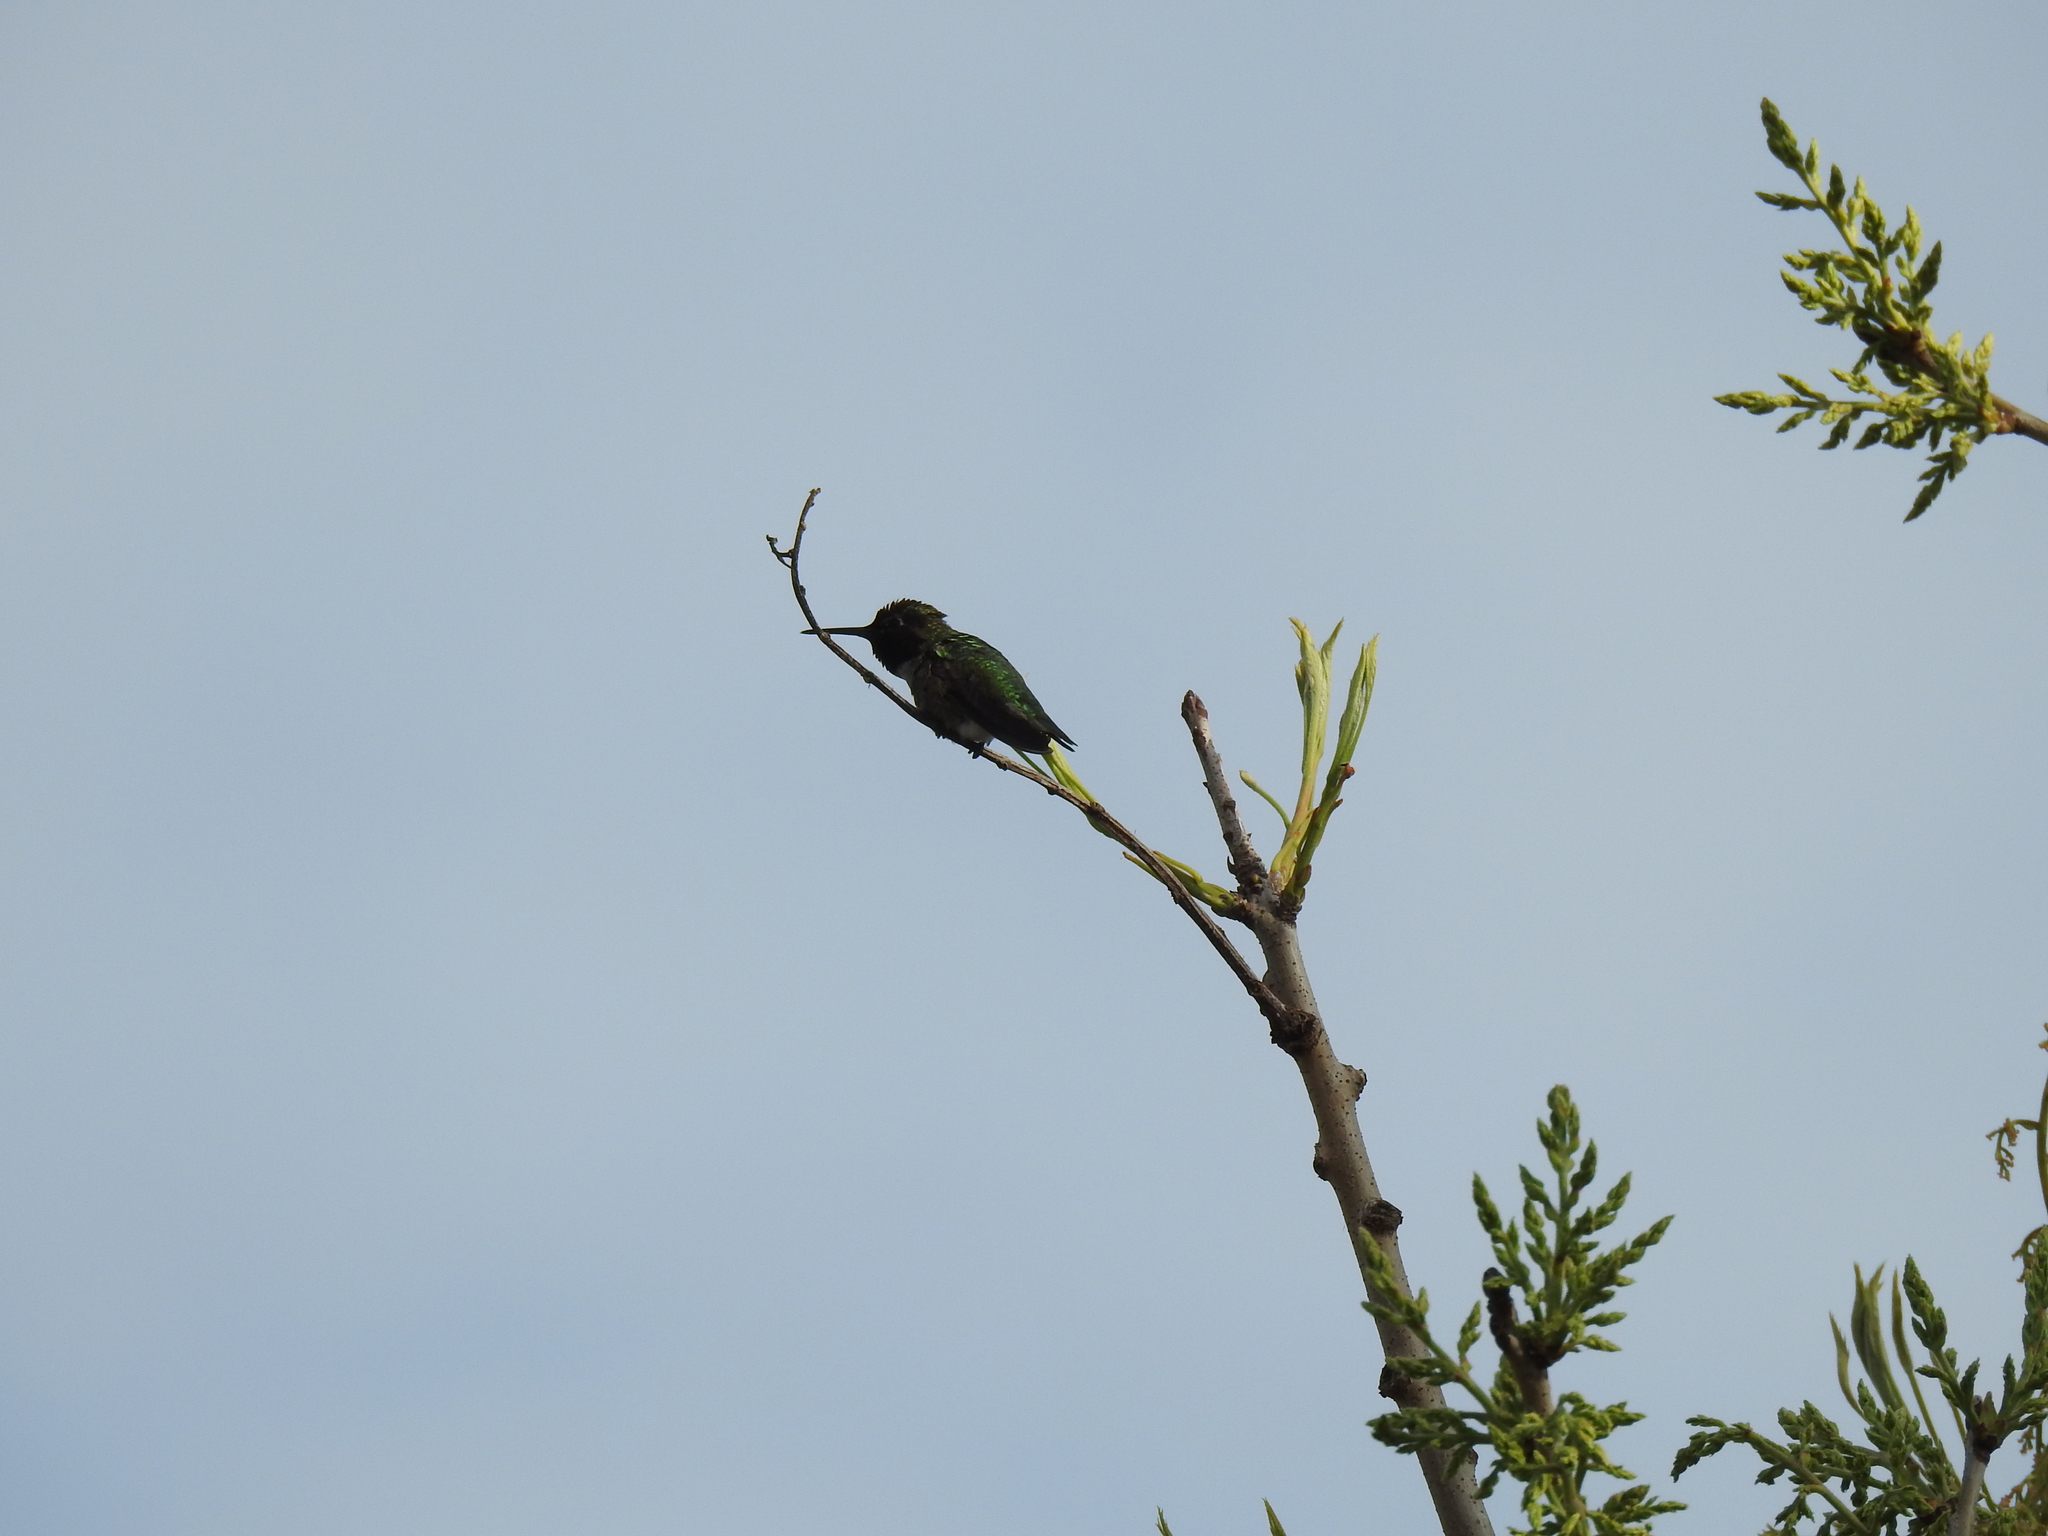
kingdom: Animalia
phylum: Chordata
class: Aves
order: Apodiformes
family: Trochilidae
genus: Calypte
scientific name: Calypte anna
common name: Anna's hummingbird
